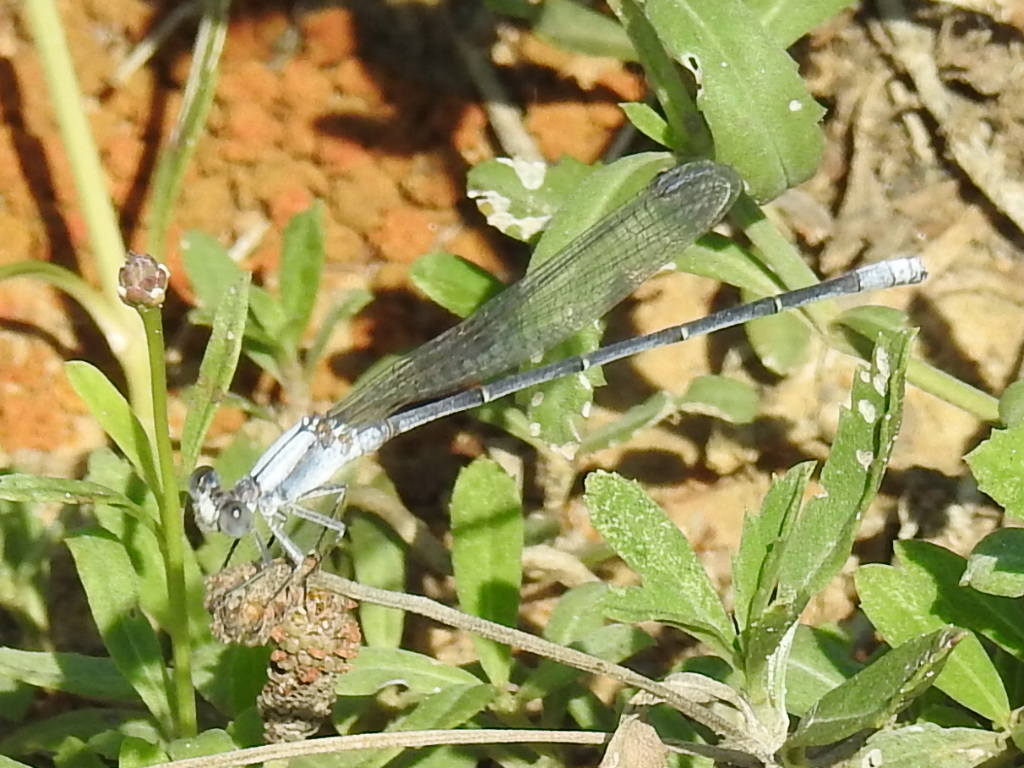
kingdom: Animalia
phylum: Arthropoda
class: Insecta
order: Odonata
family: Coenagrionidae
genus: Argia
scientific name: Argia moesta
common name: Powdered dancer
